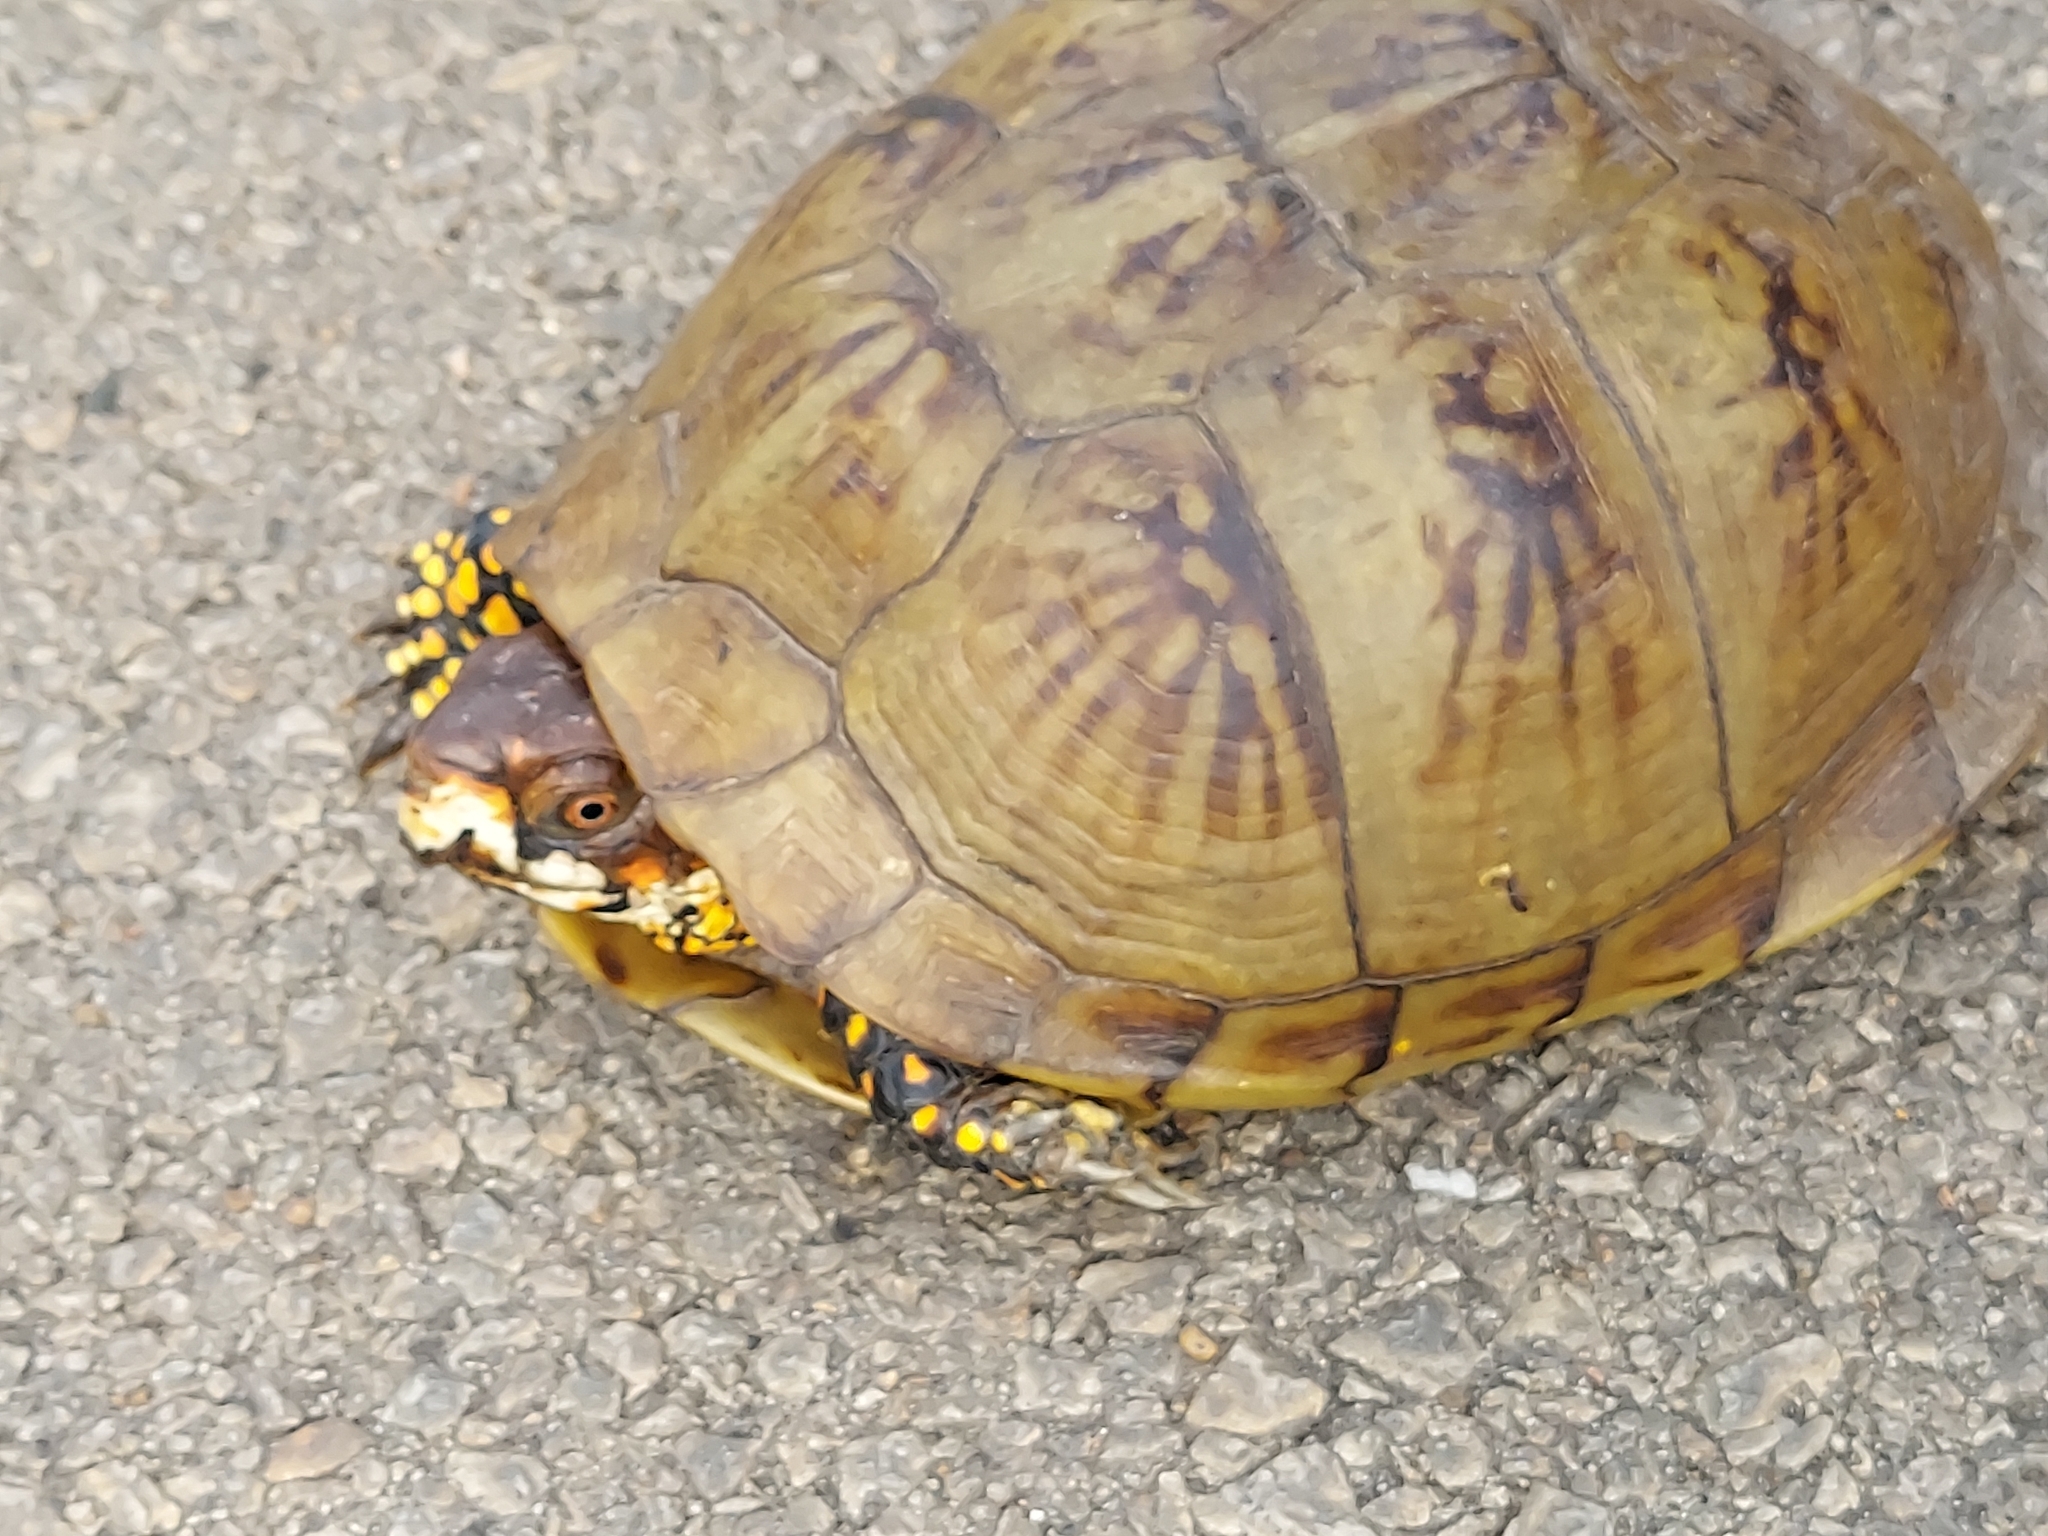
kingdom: Animalia
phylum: Chordata
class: Testudines
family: Emydidae
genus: Terrapene
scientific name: Terrapene carolina
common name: Common box turtle
